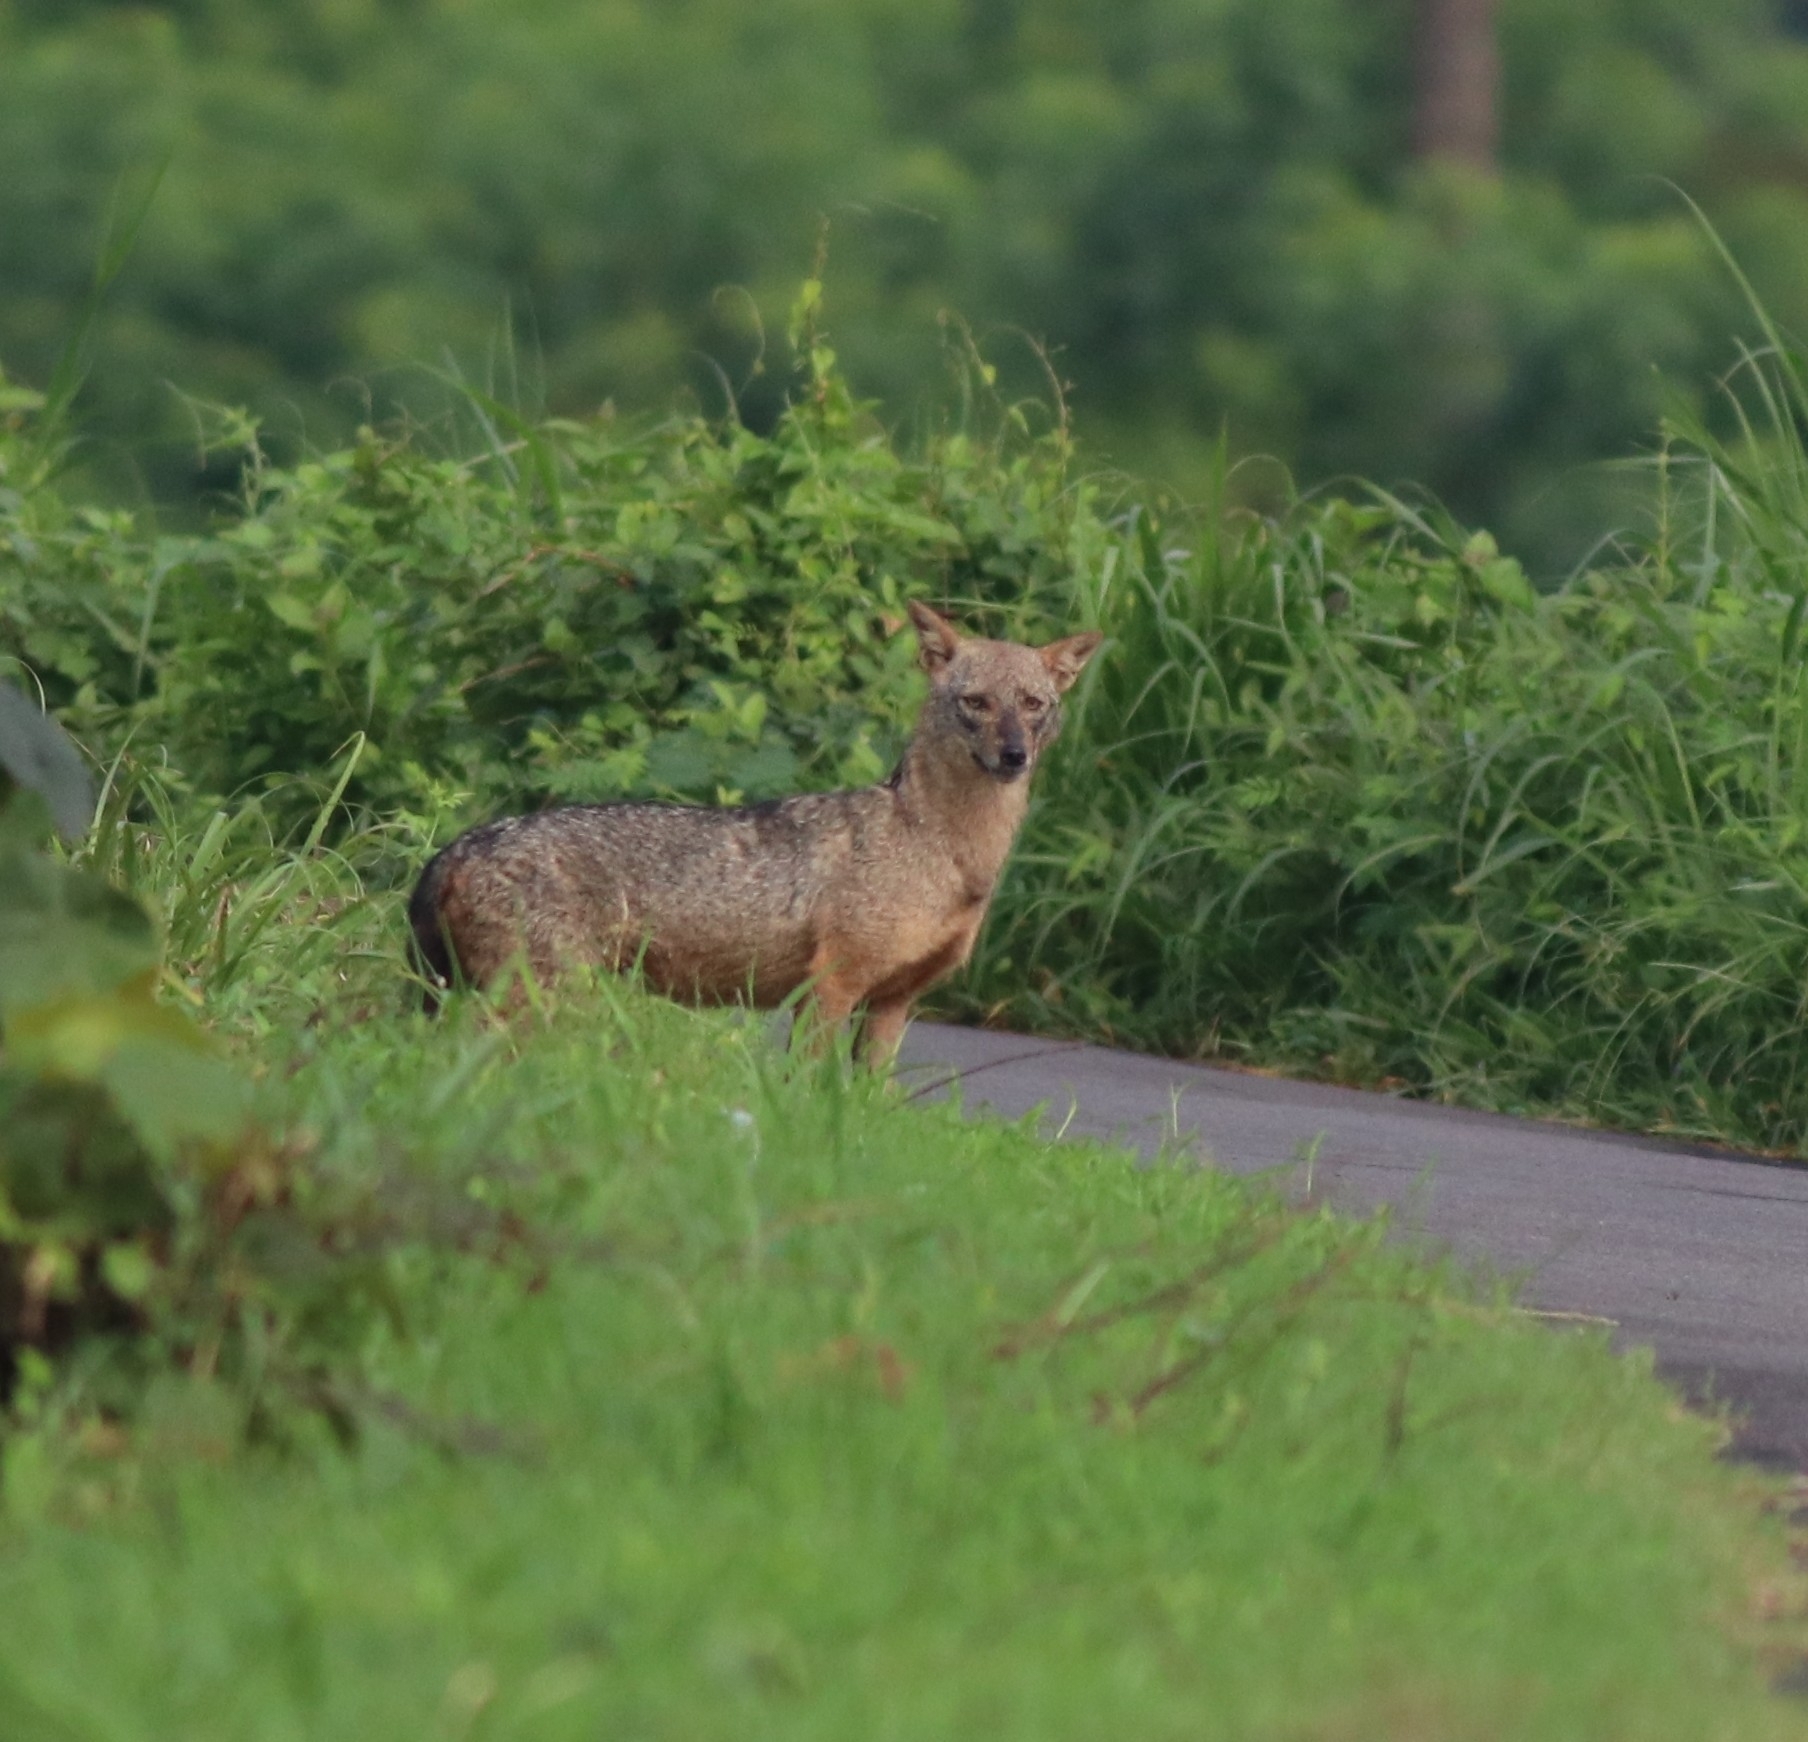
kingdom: Animalia
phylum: Chordata
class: Mammalia
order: Carnivora
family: Canidae
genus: Canis
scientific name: Canis aureus
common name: Golden jackal
